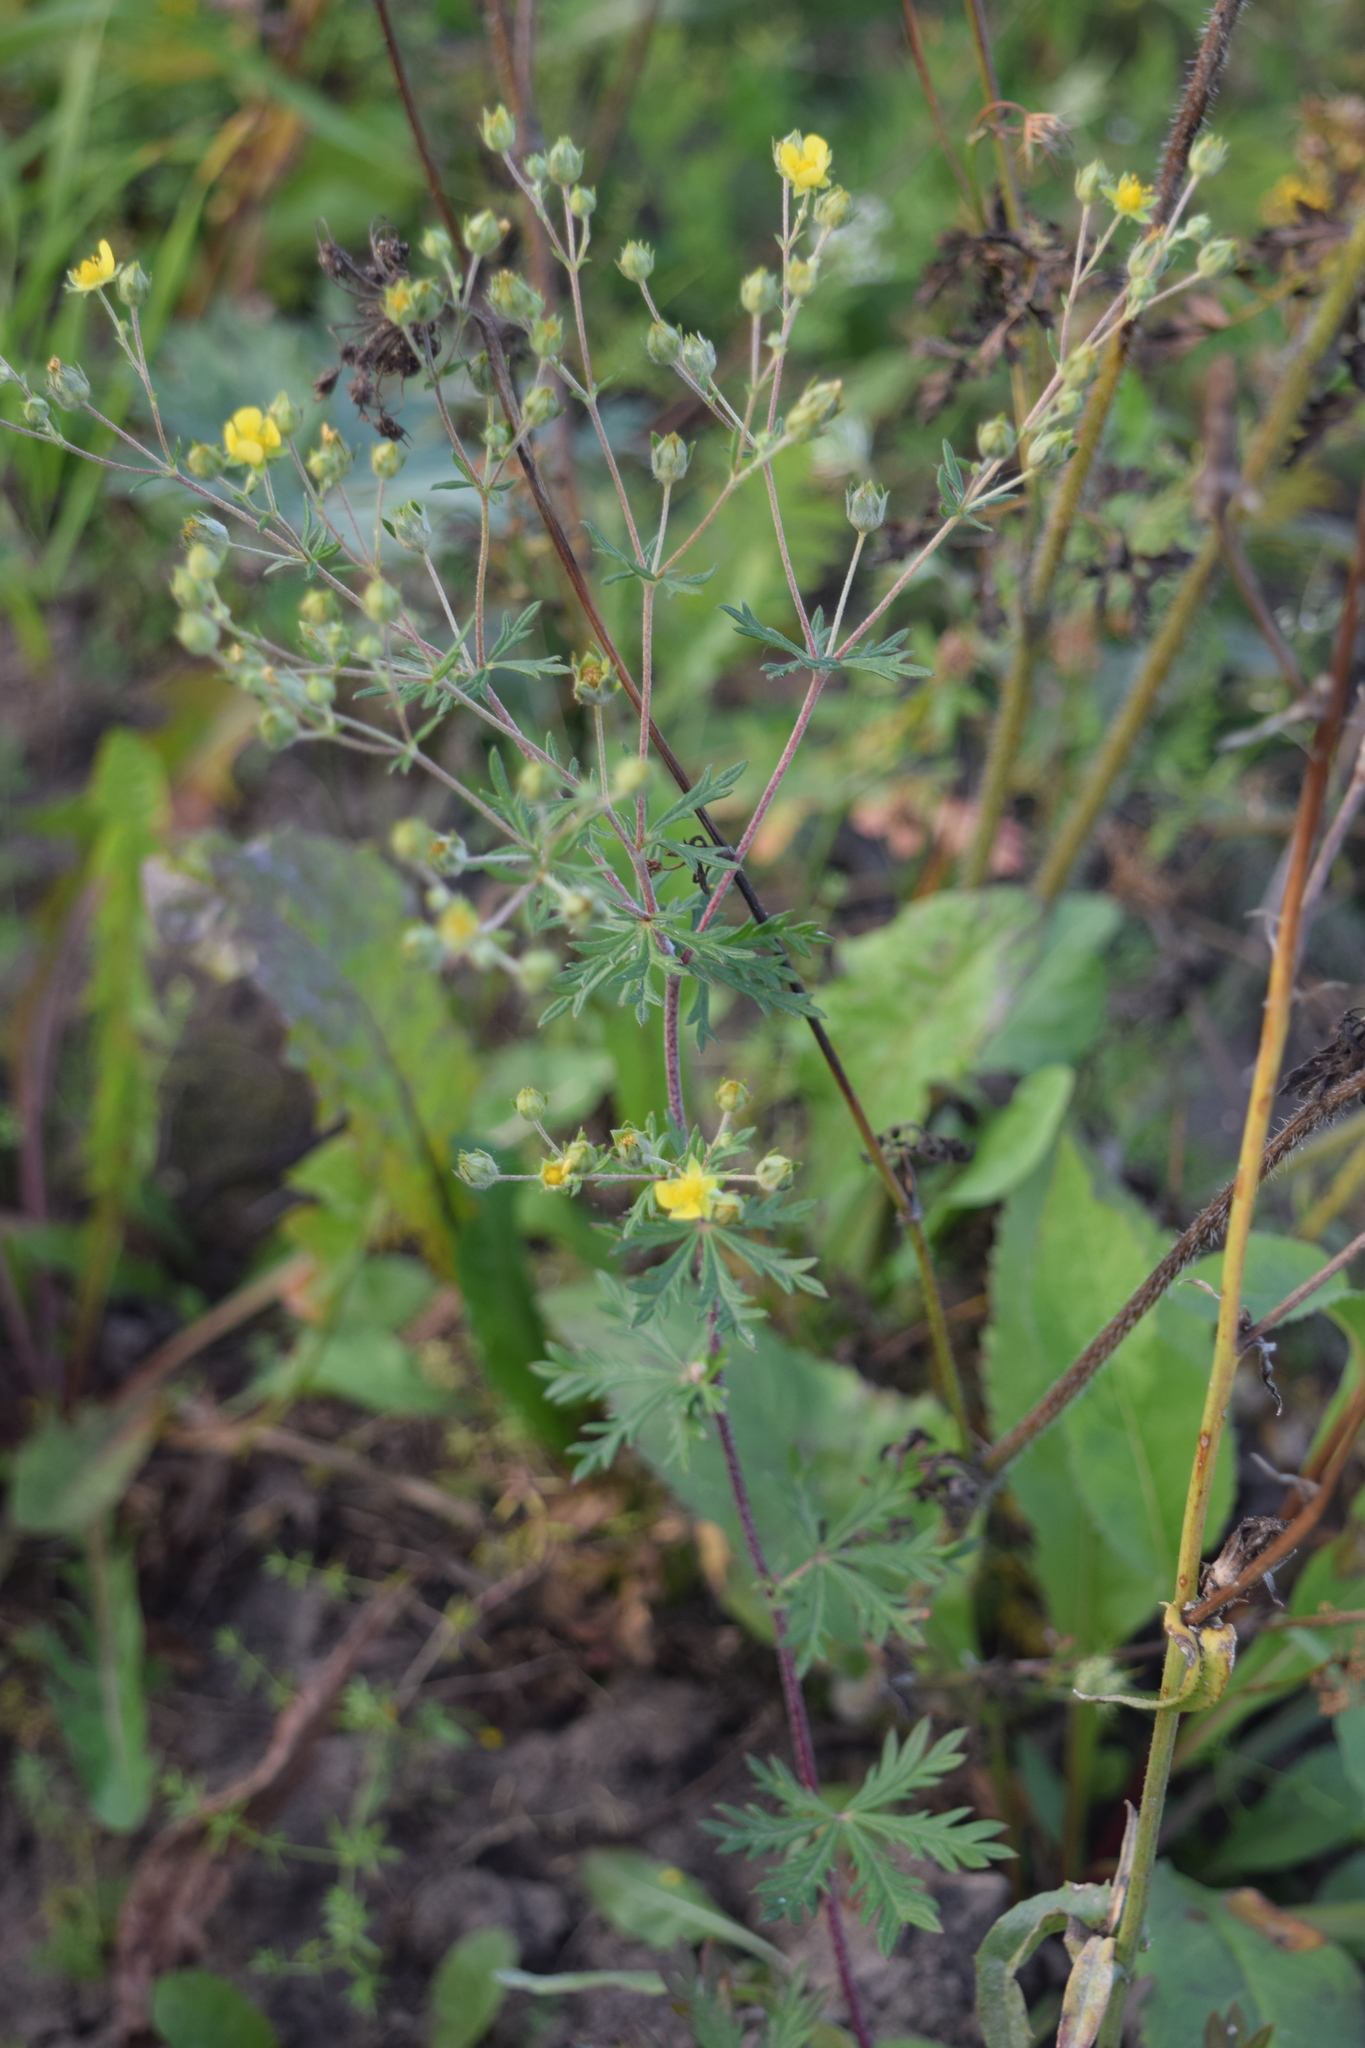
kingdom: Plantae
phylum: Tracheophyta
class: Magnoliopsida
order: Rosales
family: Rosaceae
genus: Potentilla
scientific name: Potentilla argentea
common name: Hoary cinquefoil
